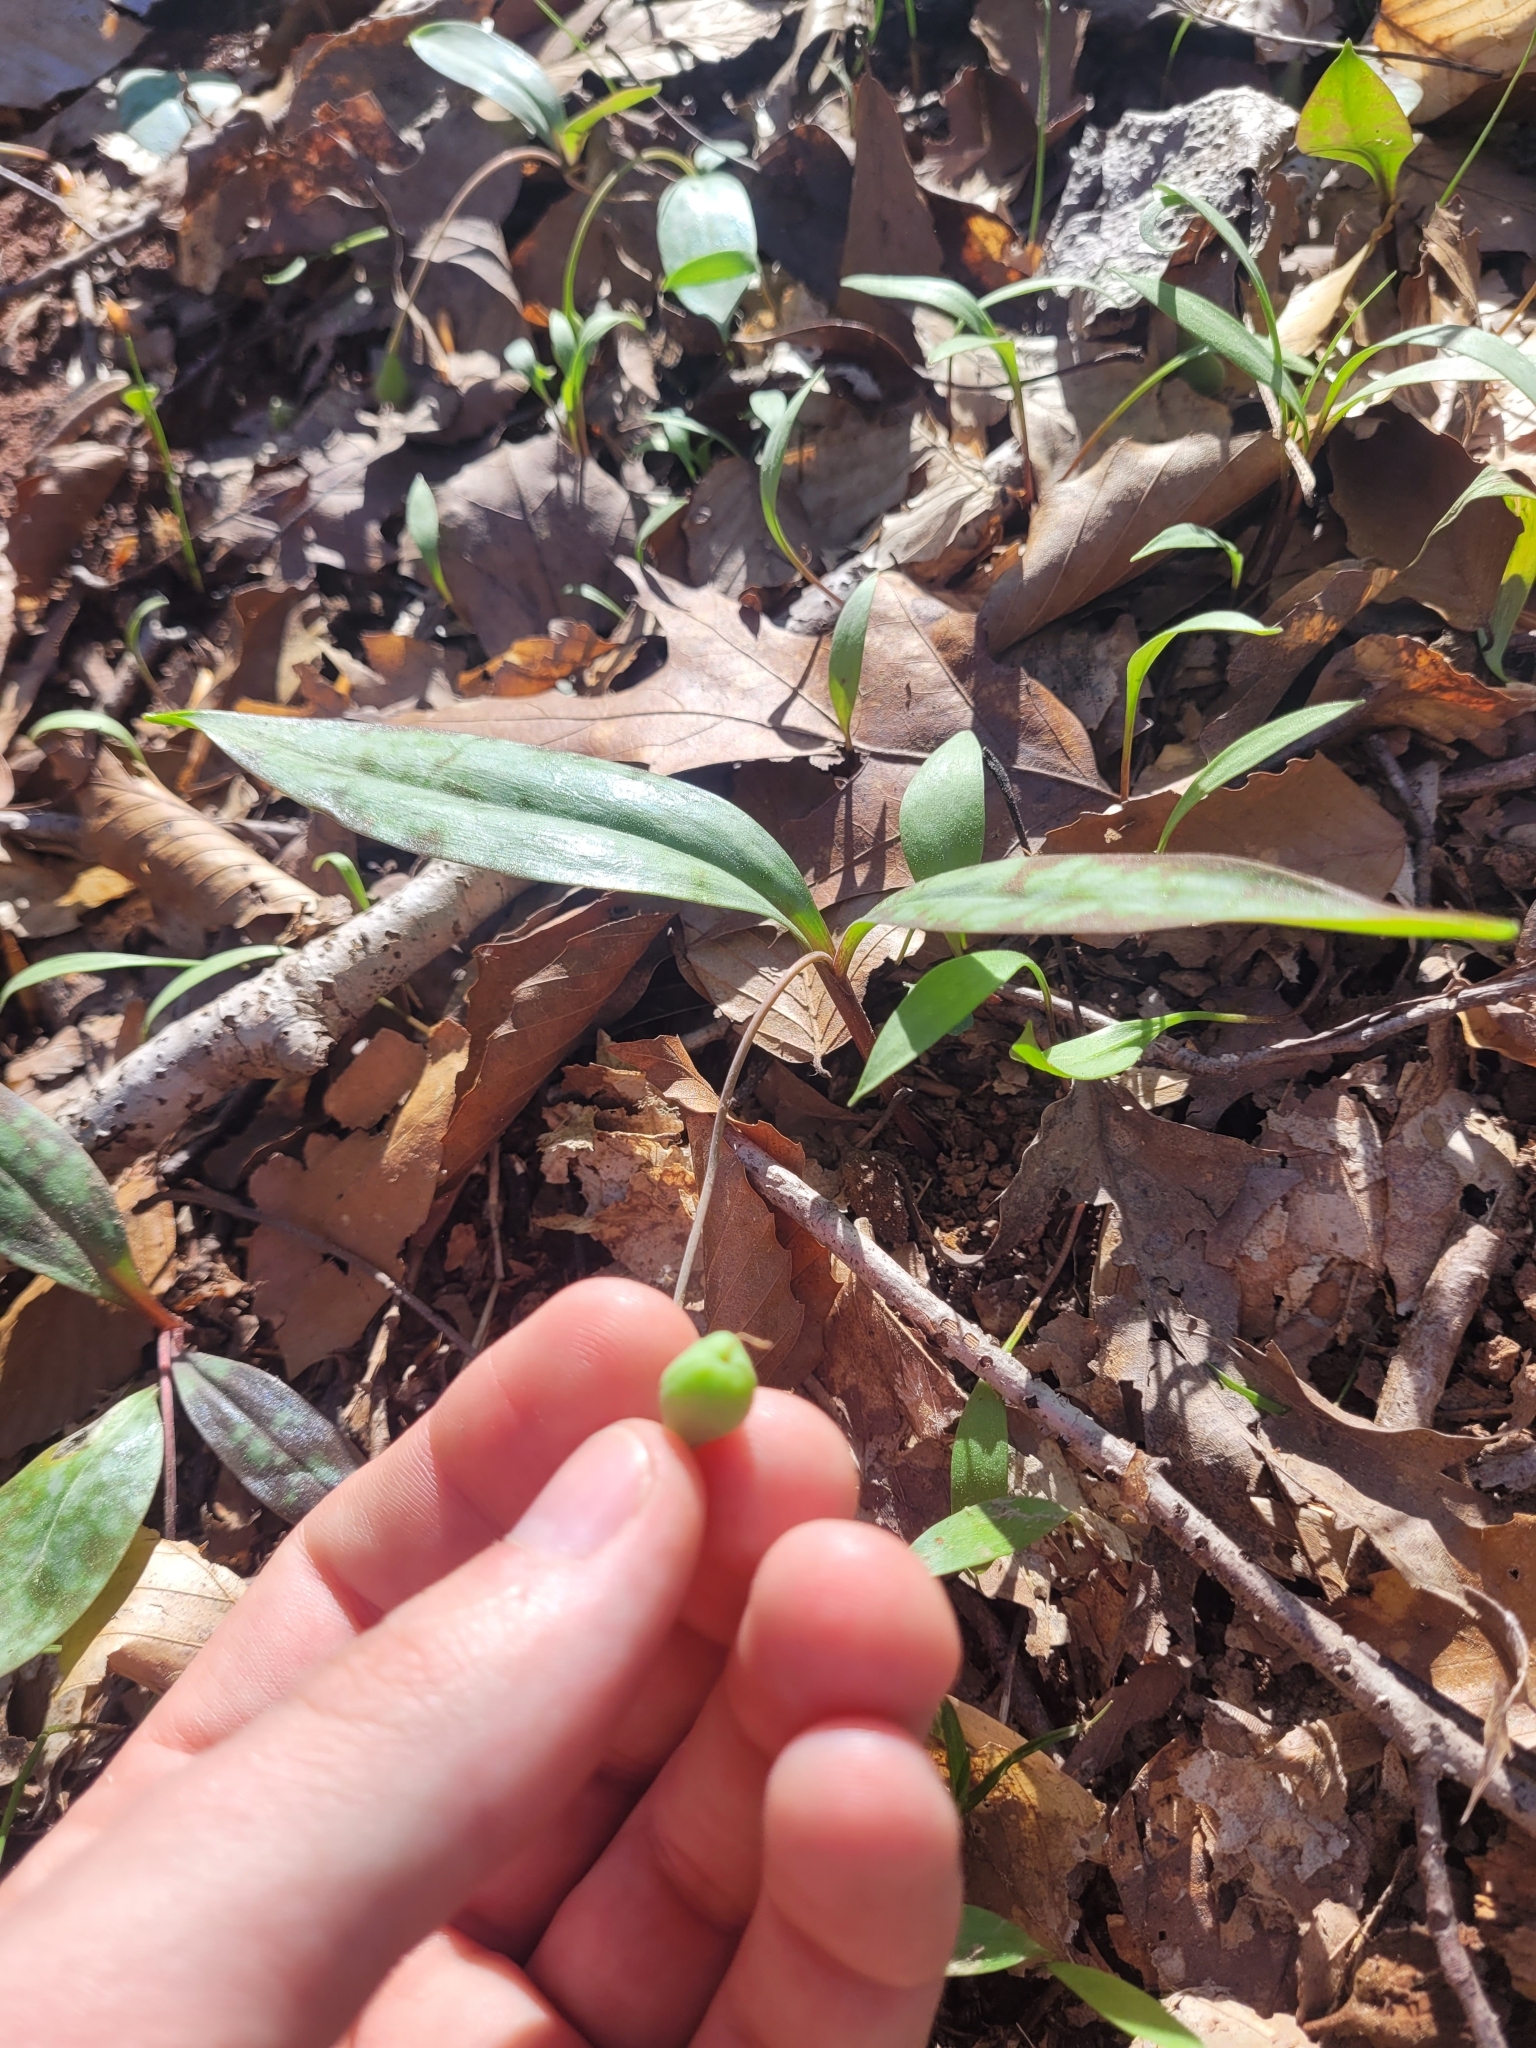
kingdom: Plantae
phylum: Tracheophyta
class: Liliopsida
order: Liliales
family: Liliaceae
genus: Erythronium
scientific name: Erythronium umbilicatum
